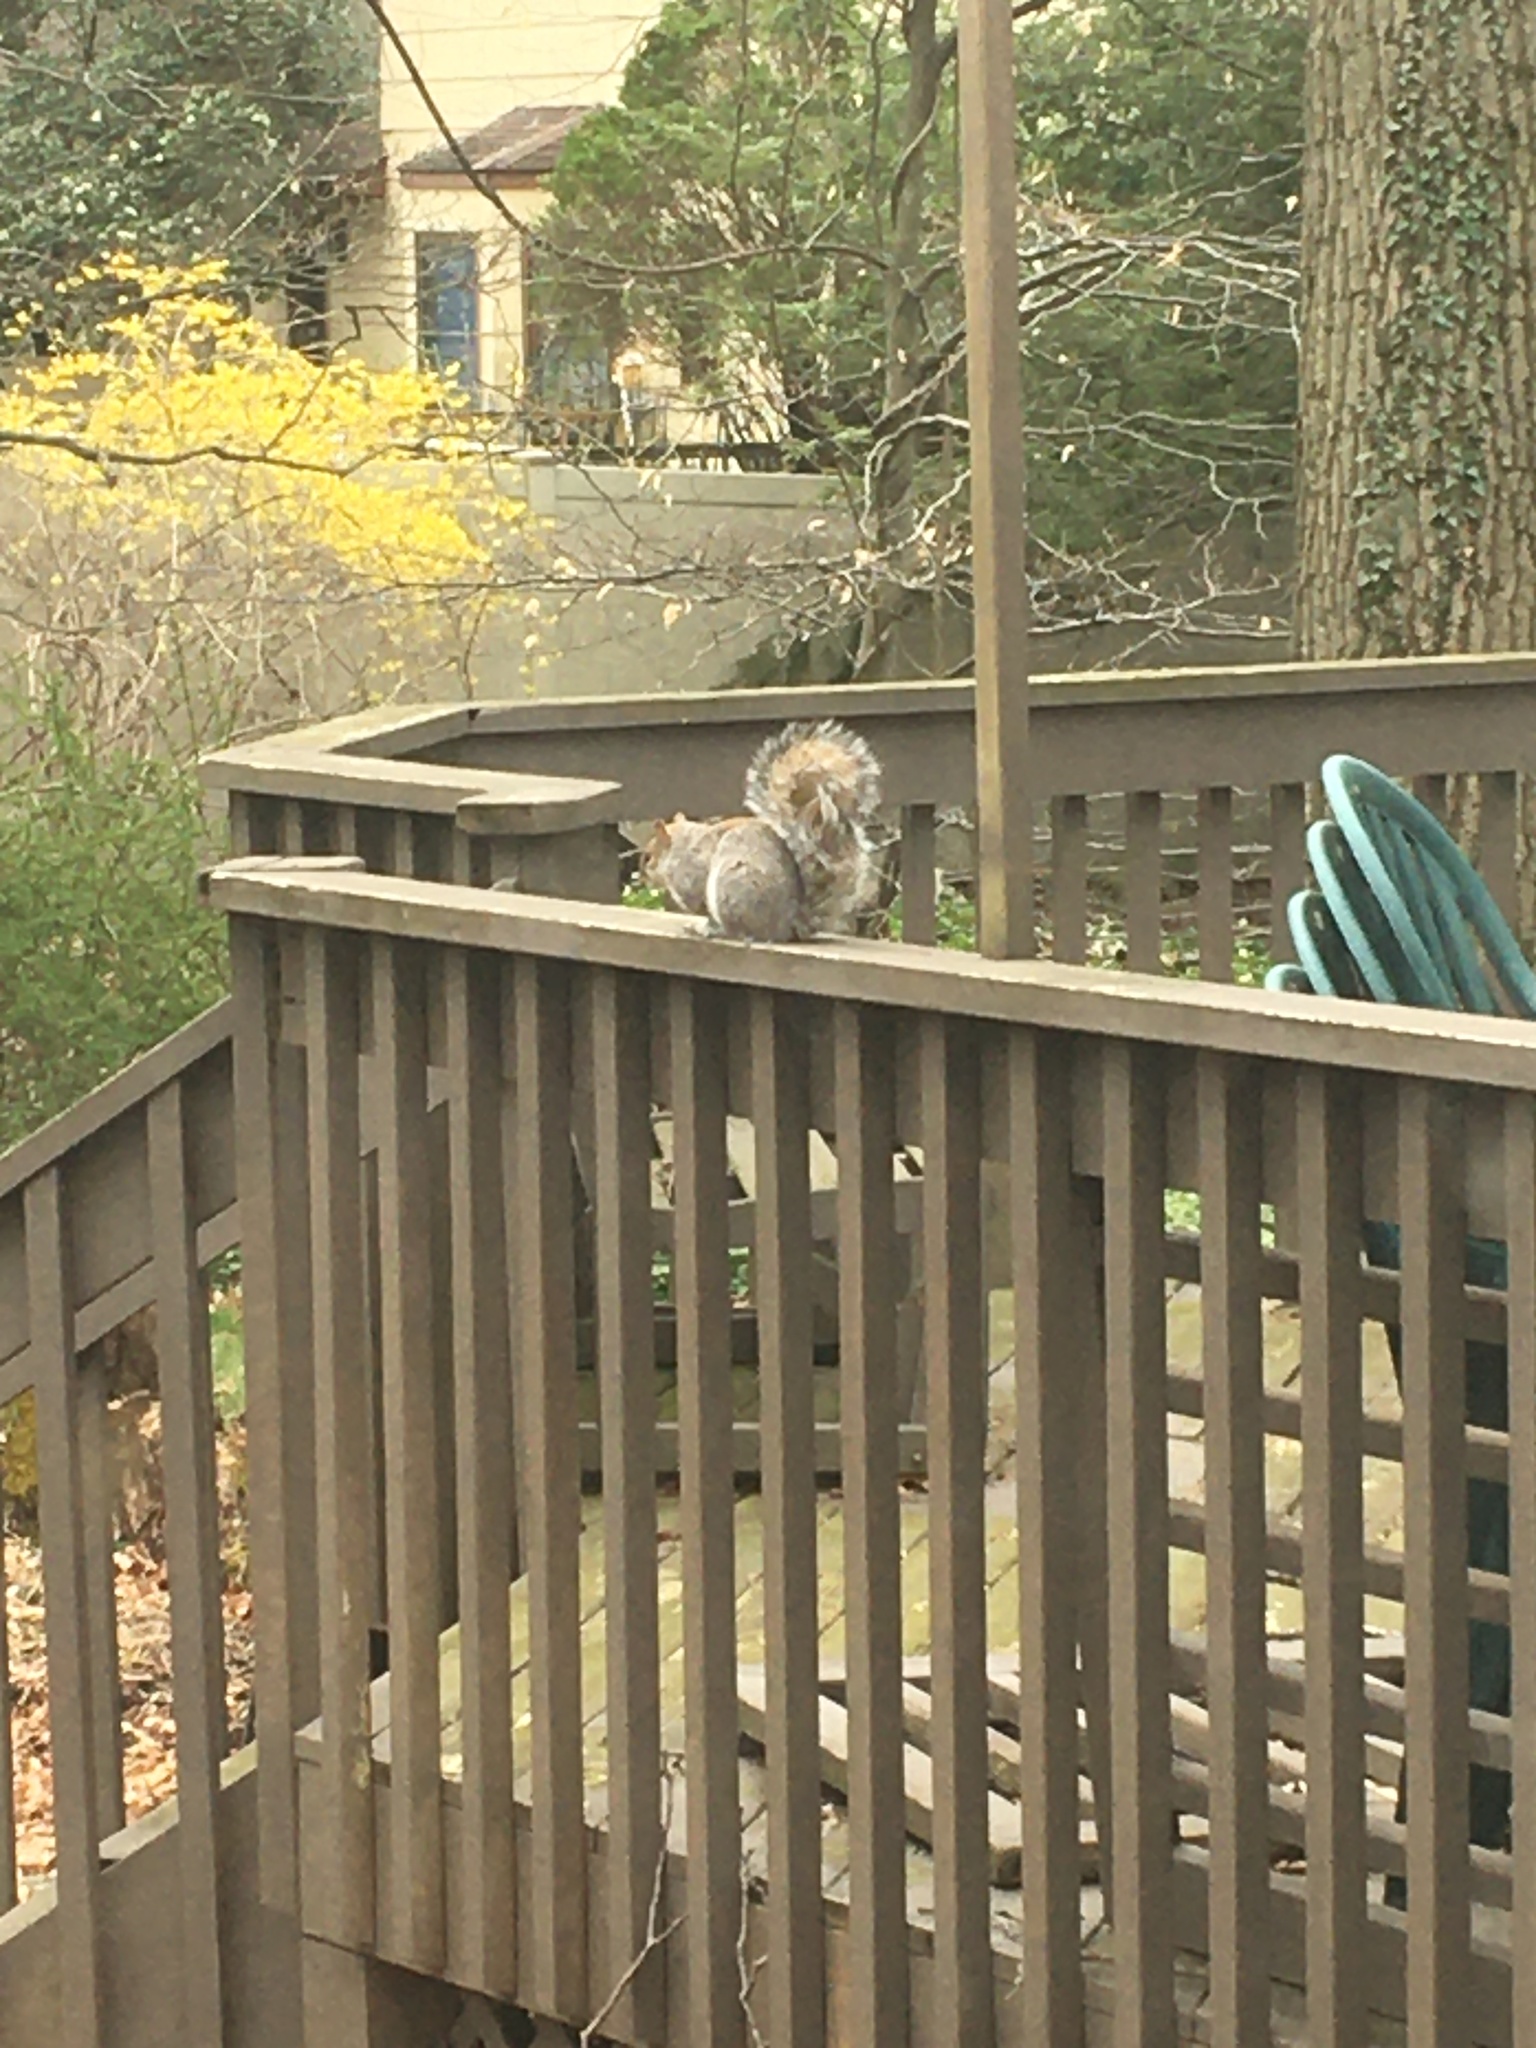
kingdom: Animalia
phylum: Chordata
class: Mammalia
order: Rodentia
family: Sciuridae
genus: Sciurus
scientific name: Sciurus carolinensis
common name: Eastern gray squirrel
